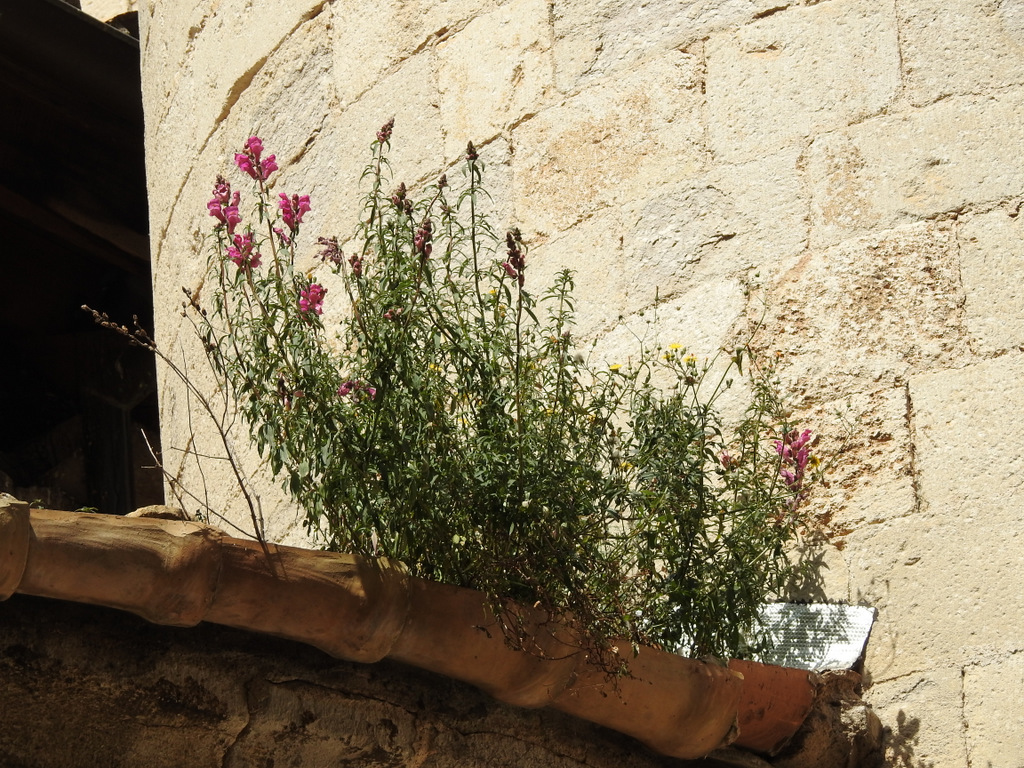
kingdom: Plantae
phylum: Tracheophyta
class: Magnoliopsida
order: Lamiales
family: Plantaginaceae
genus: Antirrhinum
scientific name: Antirrhinum majus
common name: Snapdragon
